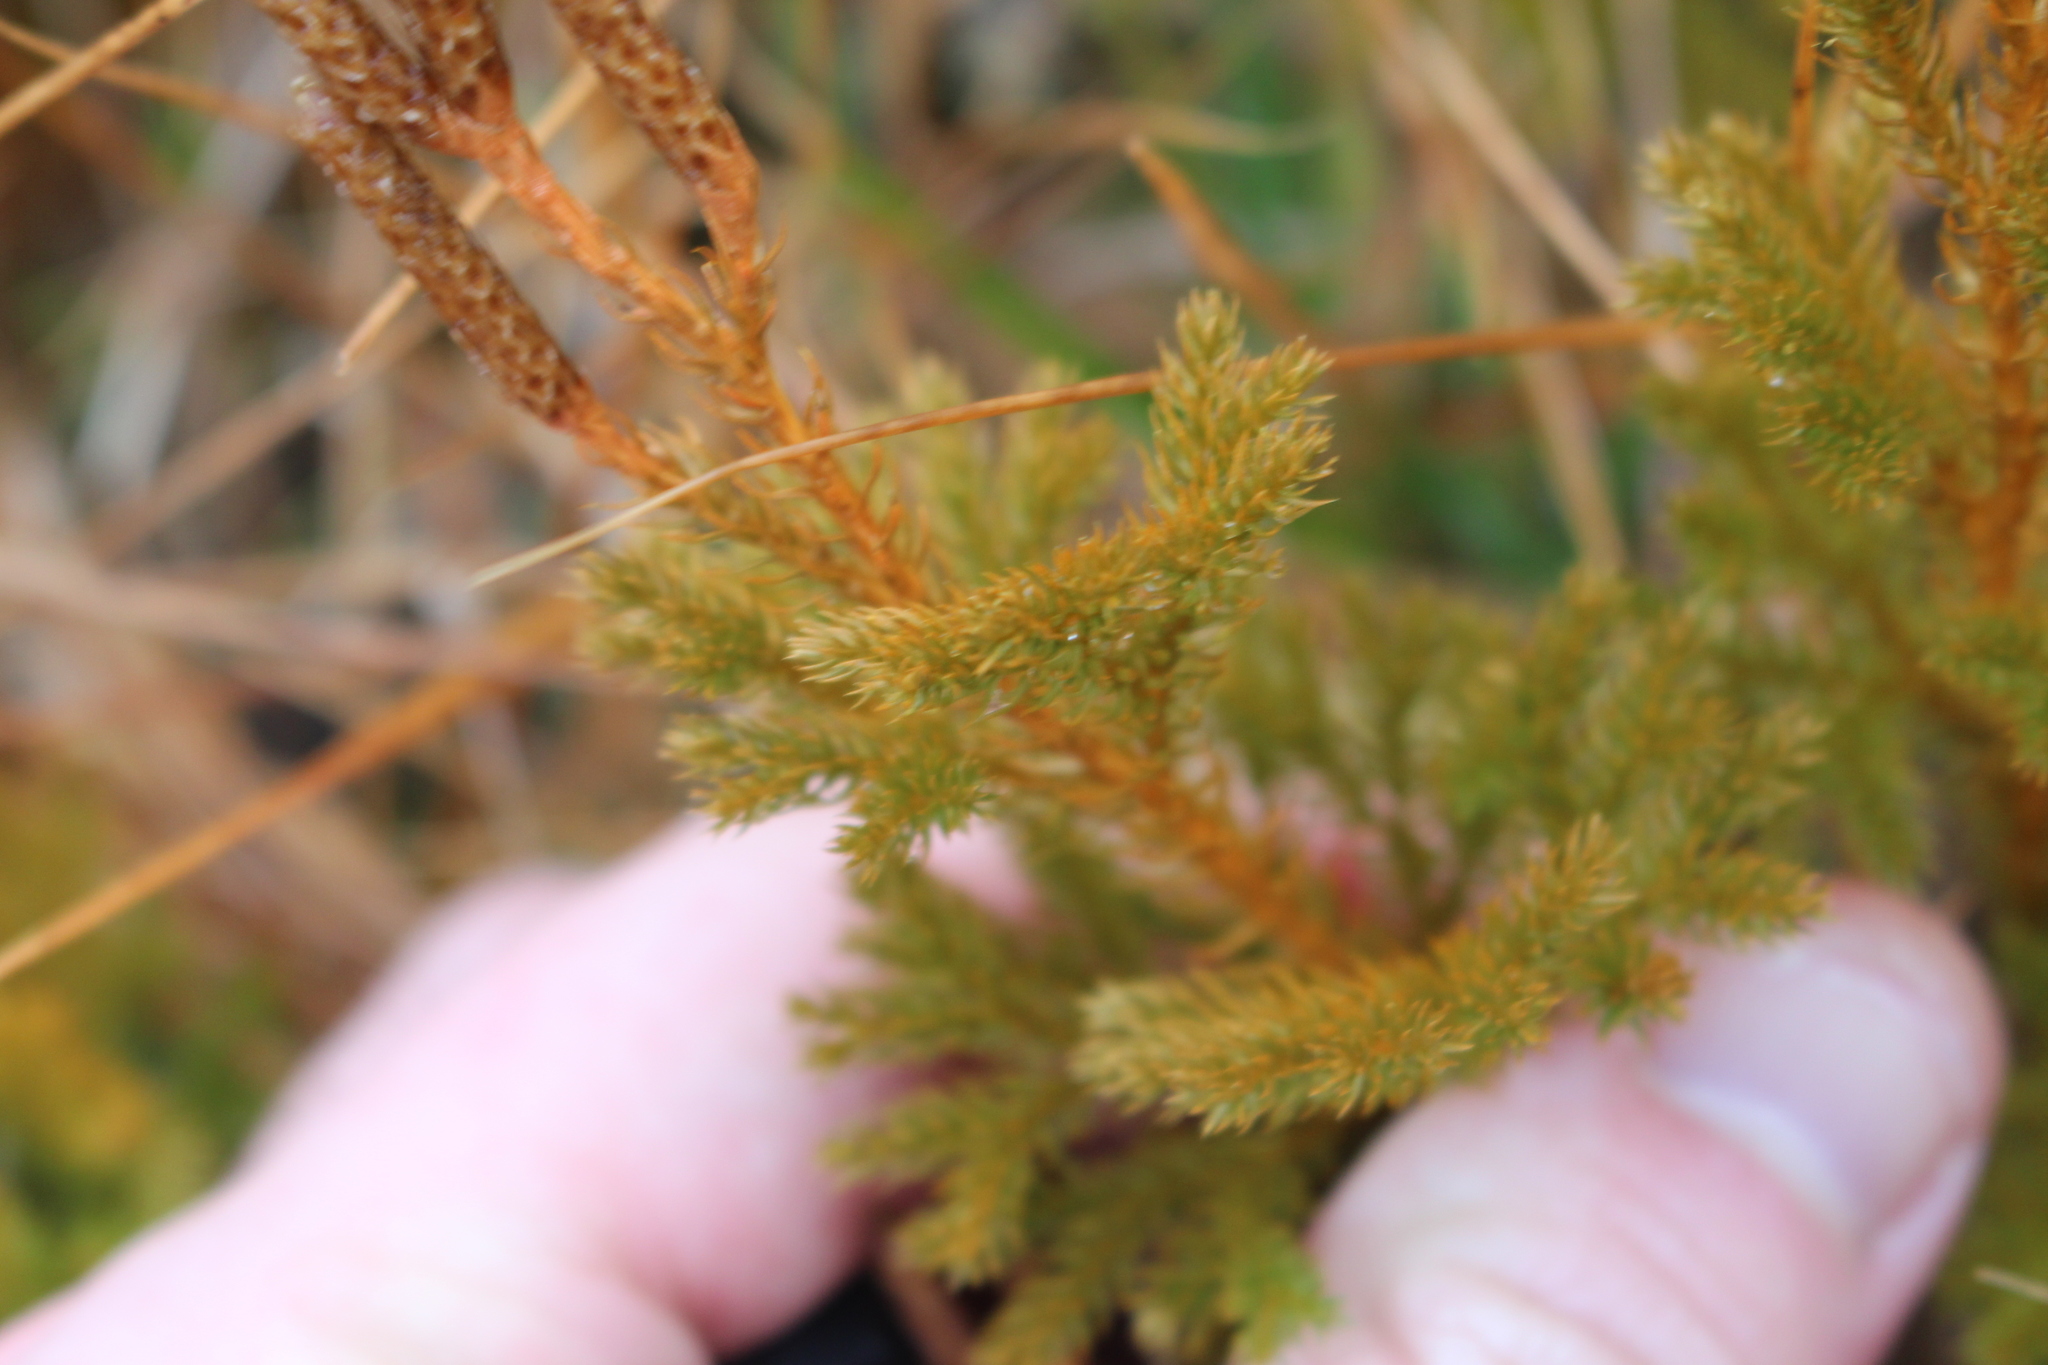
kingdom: Plantae
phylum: Tracheophyta
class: Lycopodiopsida
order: Lycopodiales
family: Lycopodiaceae
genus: Austrolycopodium
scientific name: Austrolycopodium fastigiatum
